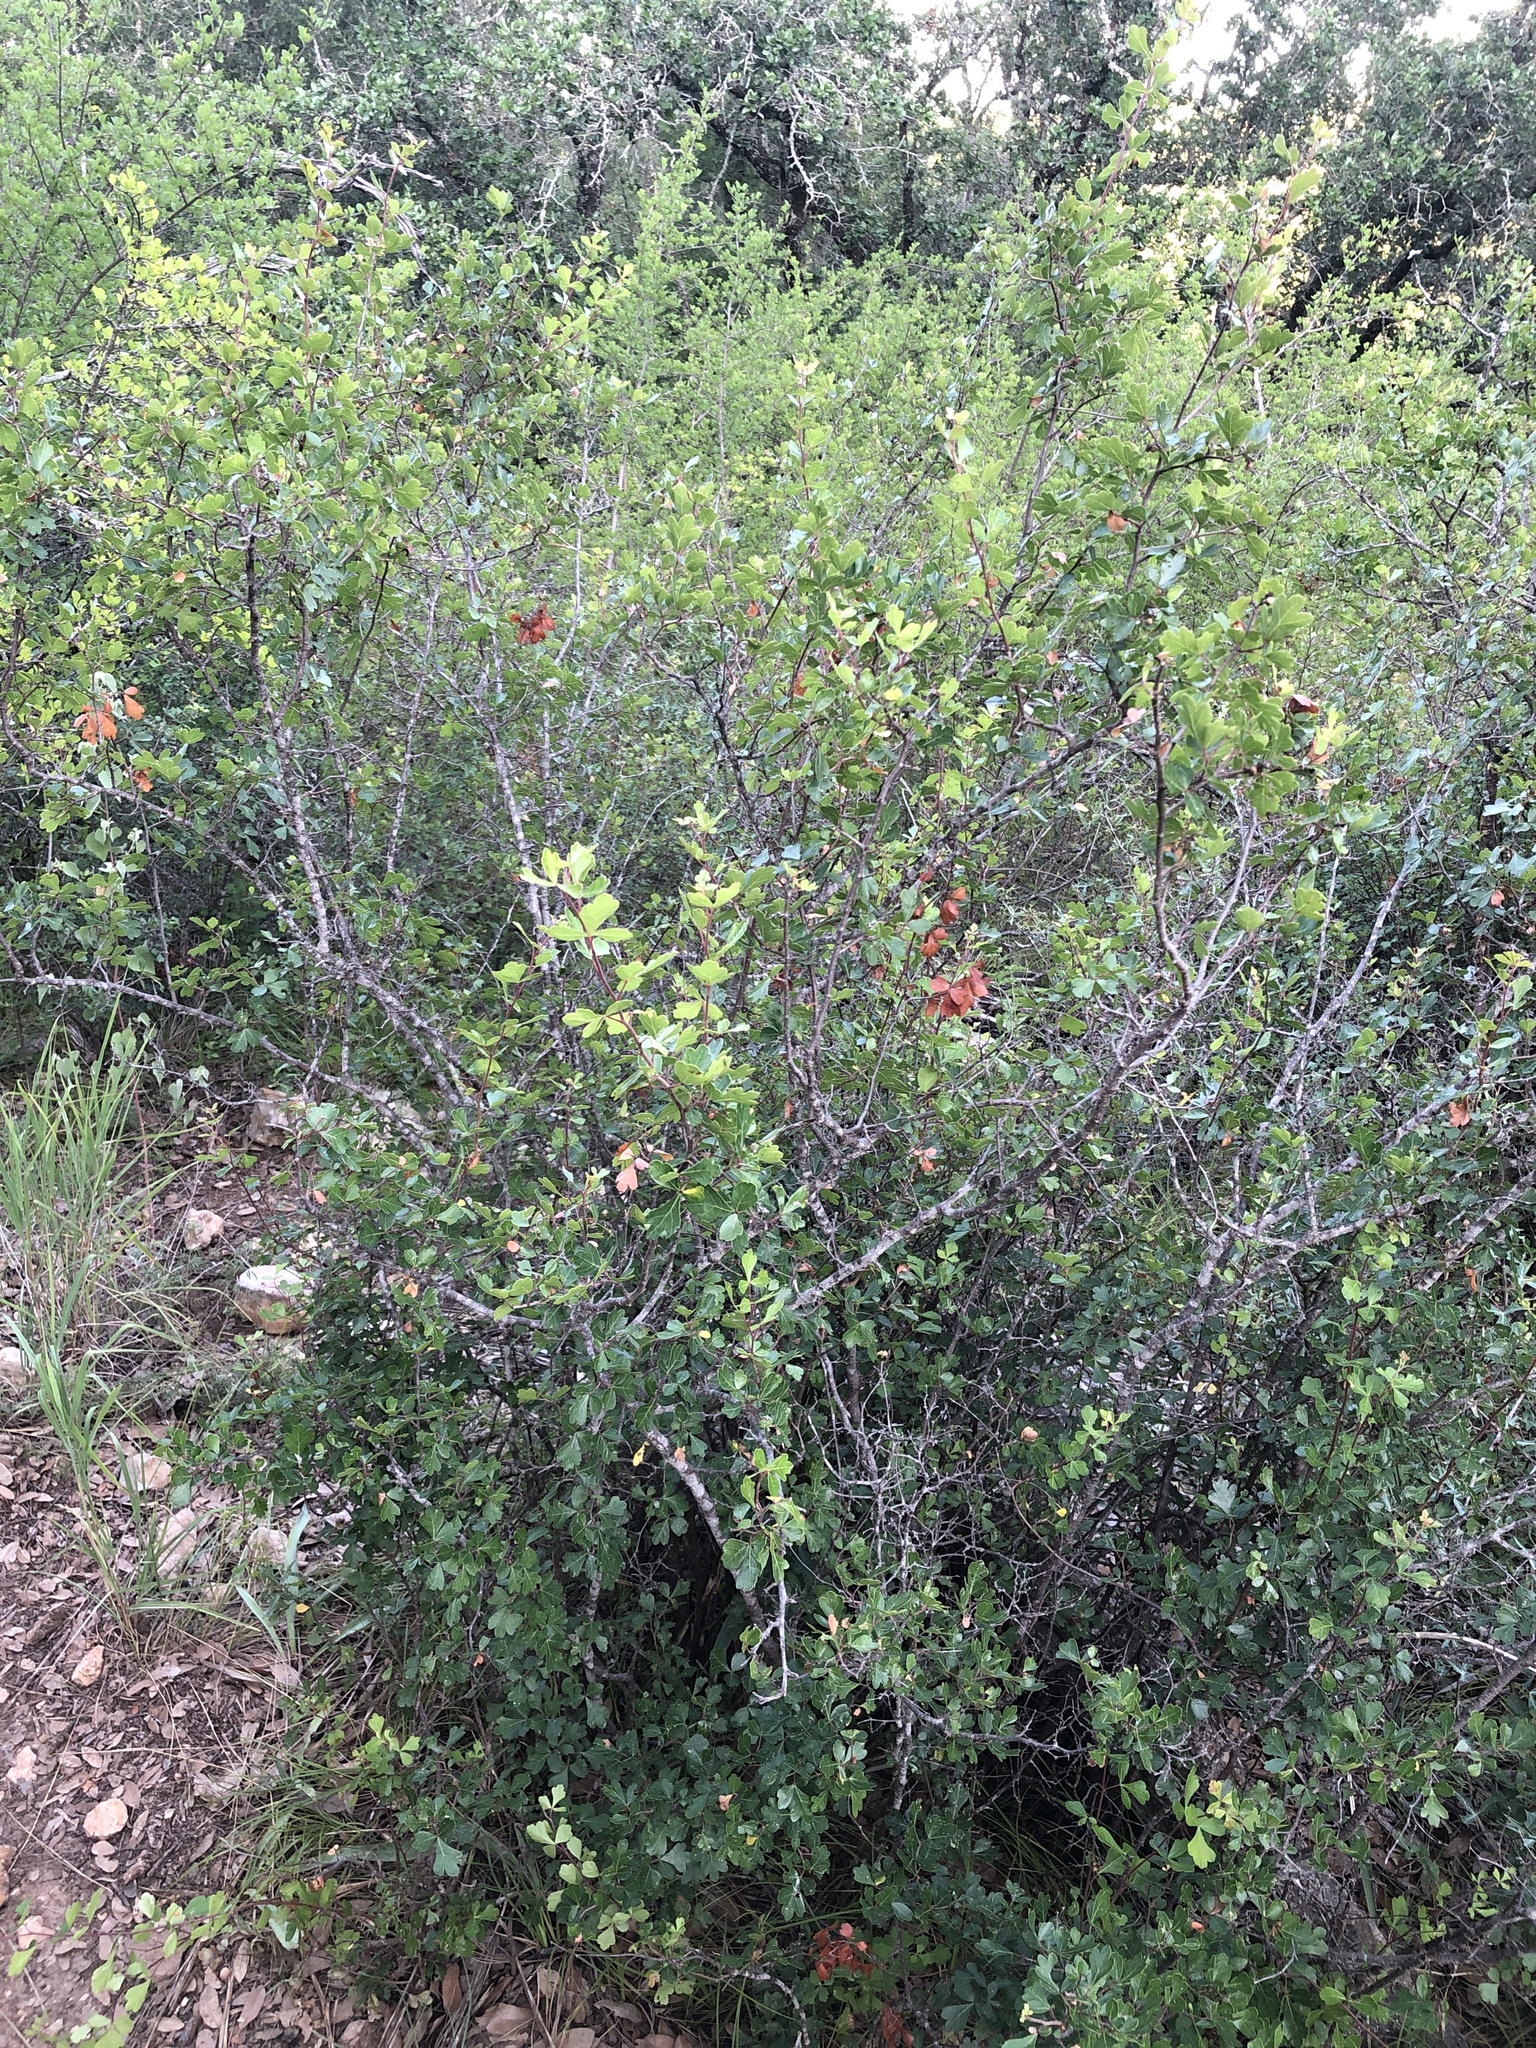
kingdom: Plantae
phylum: Tracheophyta
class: Magnoliopsida
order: Sapindales
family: Anacardiaceae
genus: Rhus
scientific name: Rhus aromatica
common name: Aromatic sumac
